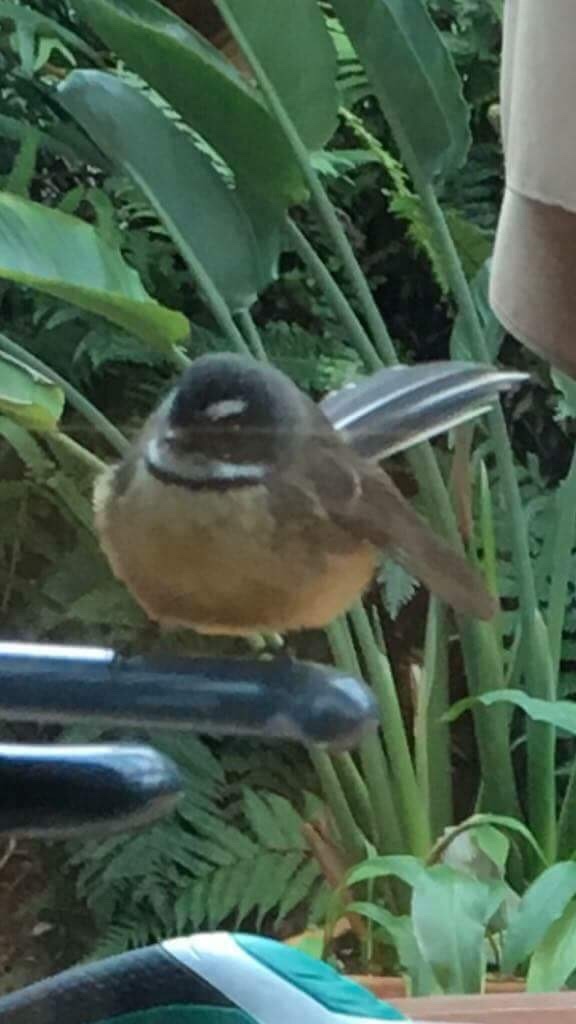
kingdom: Animalia
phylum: Chordata
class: Aves
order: Passeriformes
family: Rhipiduridae
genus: Rhipidura
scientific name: Rhipidura fuliginosa
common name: New zealand fantail
